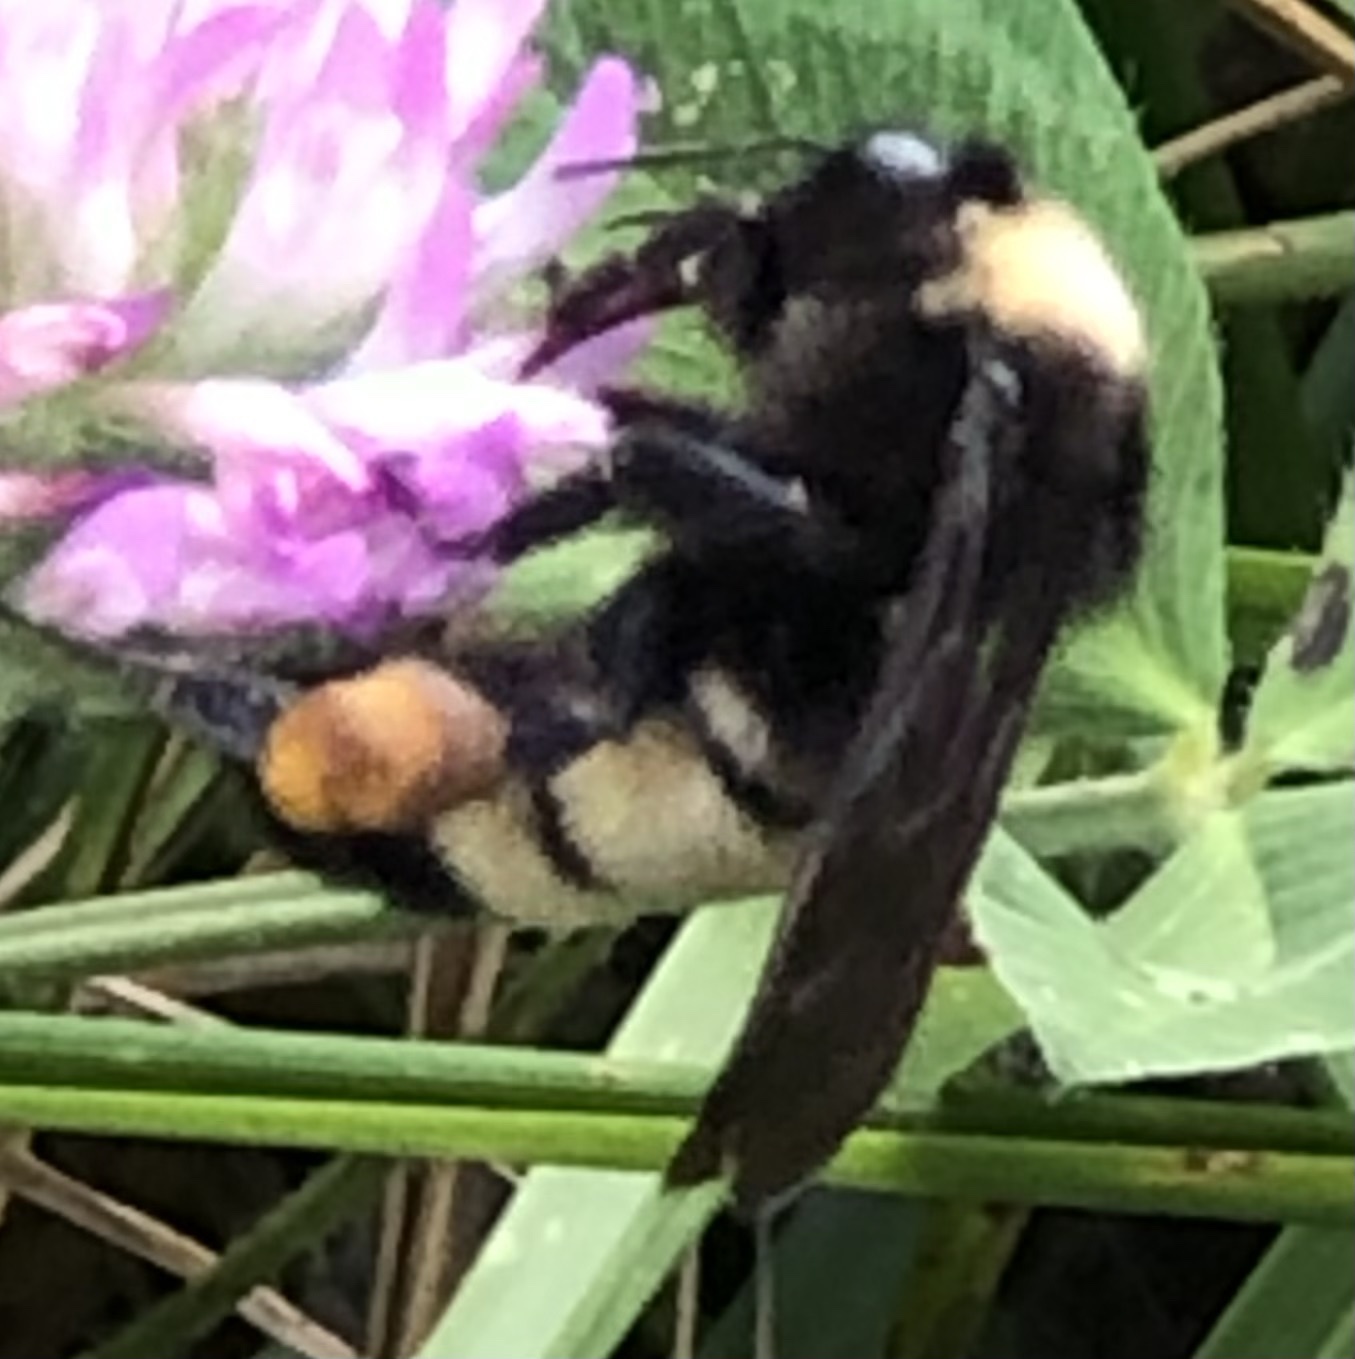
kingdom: Animalia
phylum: Arthropoda
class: Insecta
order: Hymenoptera
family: Apidae
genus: Bombus
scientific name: Bombus pensylvanicus
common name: Bumble bee
